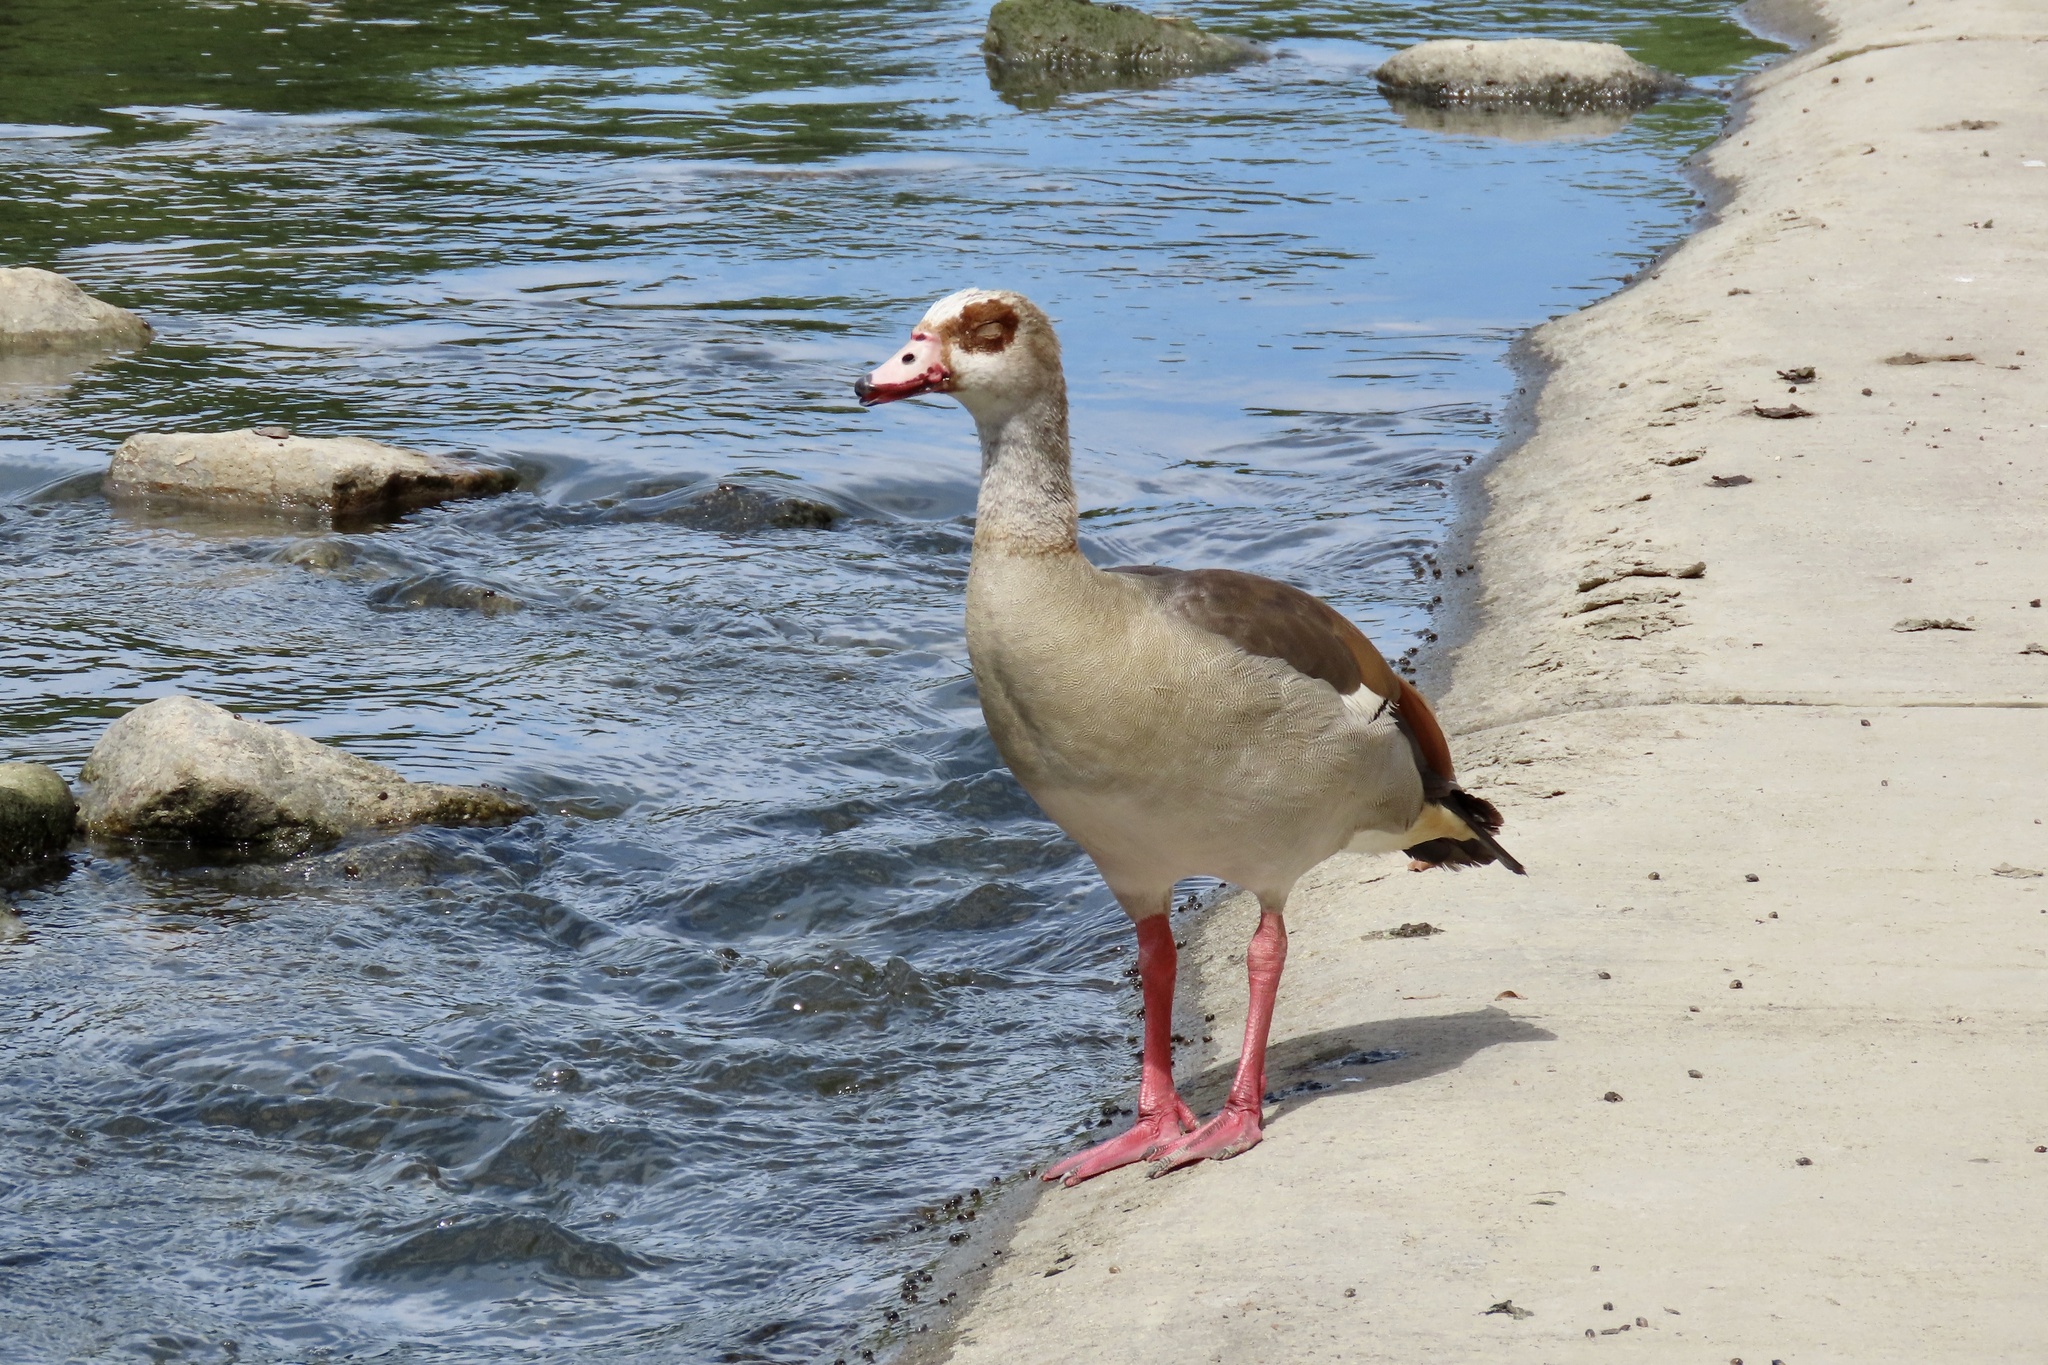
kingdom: Animalia
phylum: Chordata
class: Aves
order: Anseriformes
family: Anatidae
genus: Alopochen
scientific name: Alopochen aegyptiaca
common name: Egyptian goose
